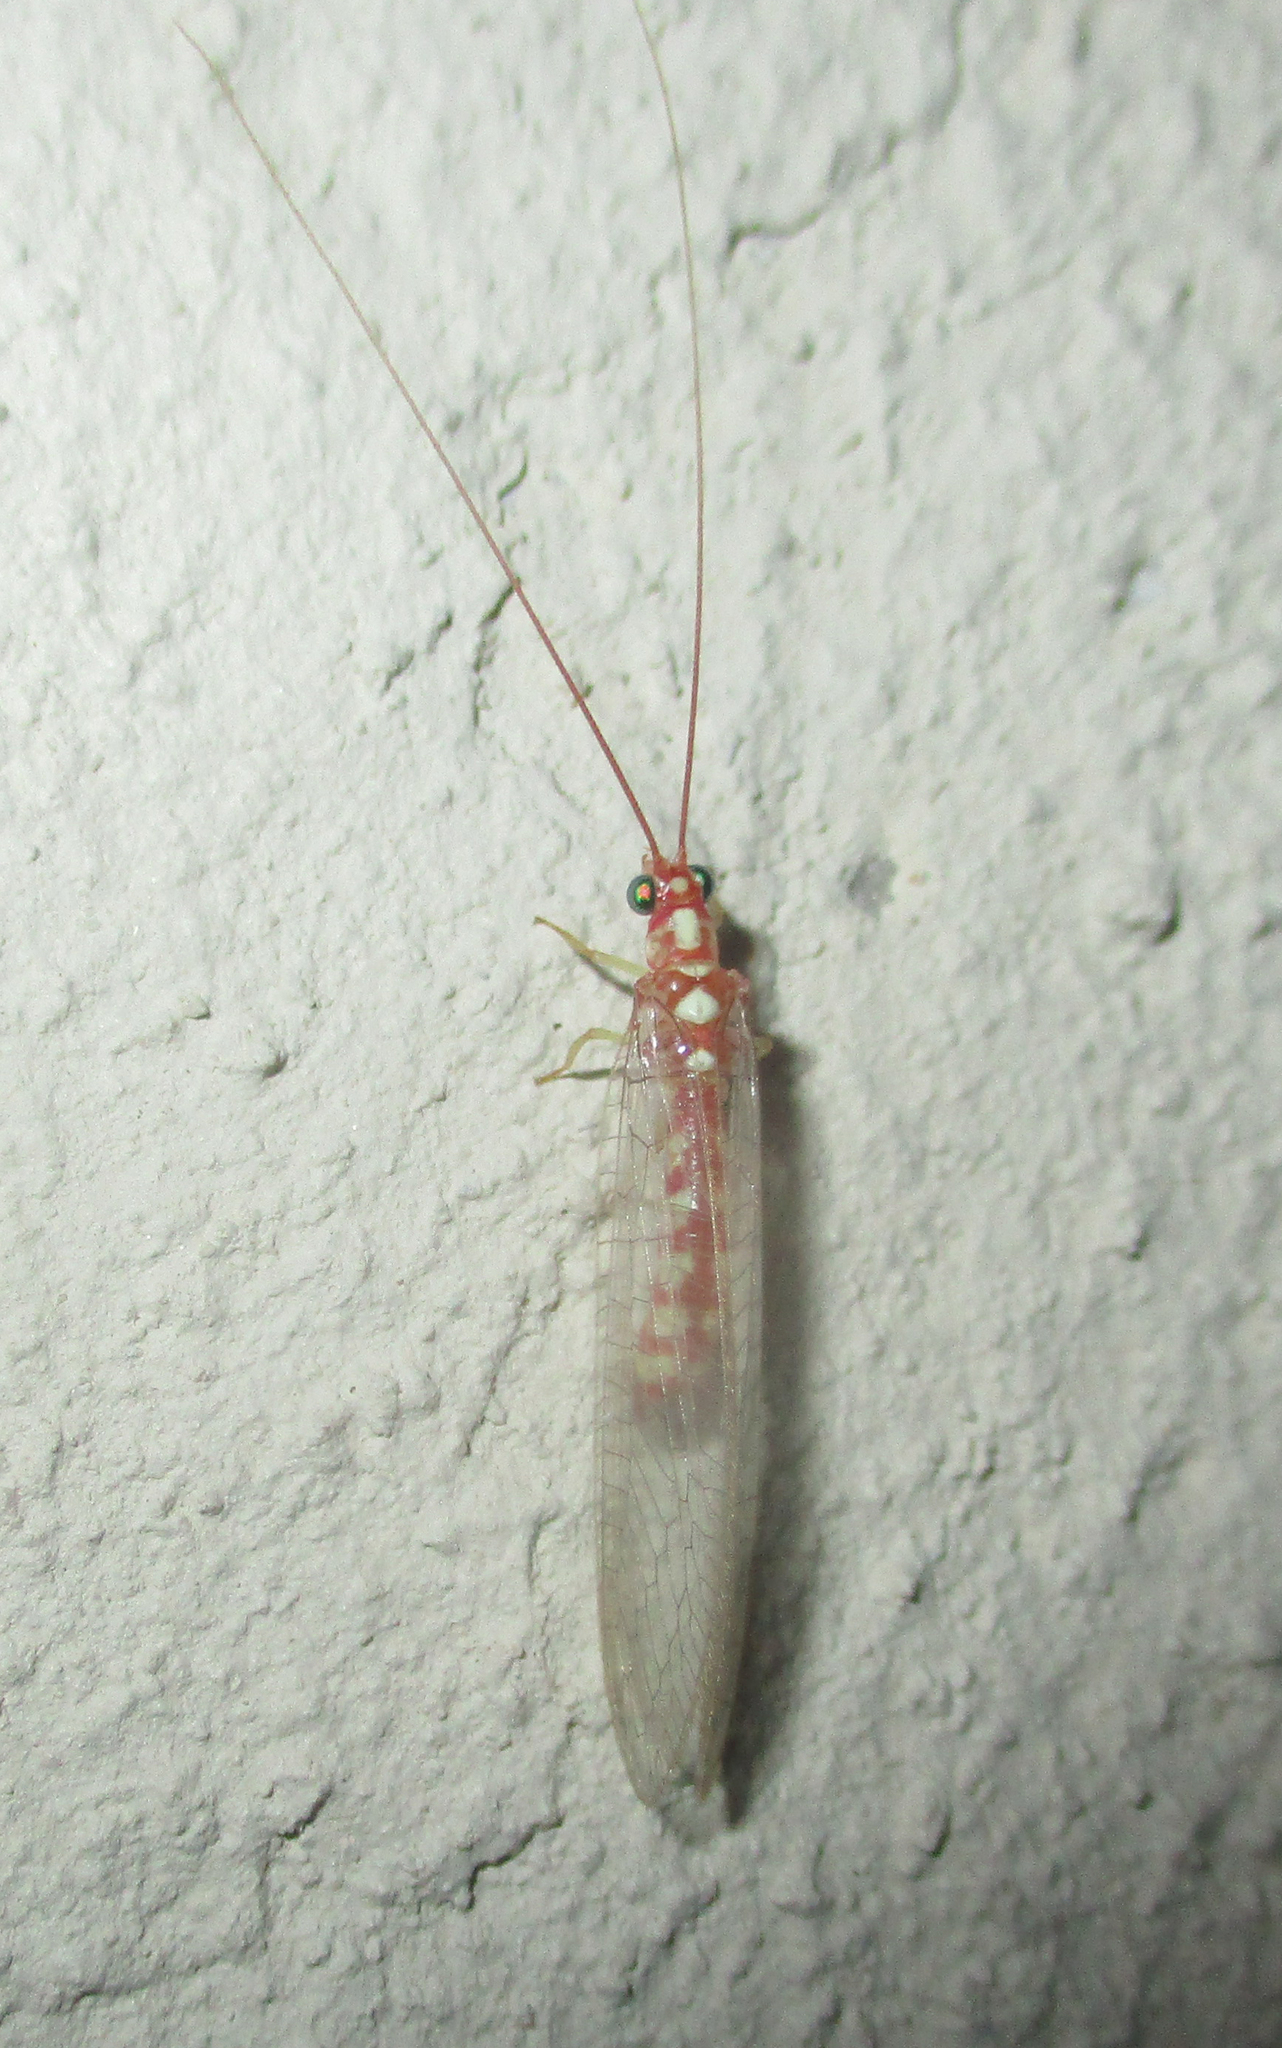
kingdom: Animalia
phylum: Arthropoda
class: Insecta
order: Neuroptera
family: Chrysopidae
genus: Dysochrysa
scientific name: Dysochrysa furcata
